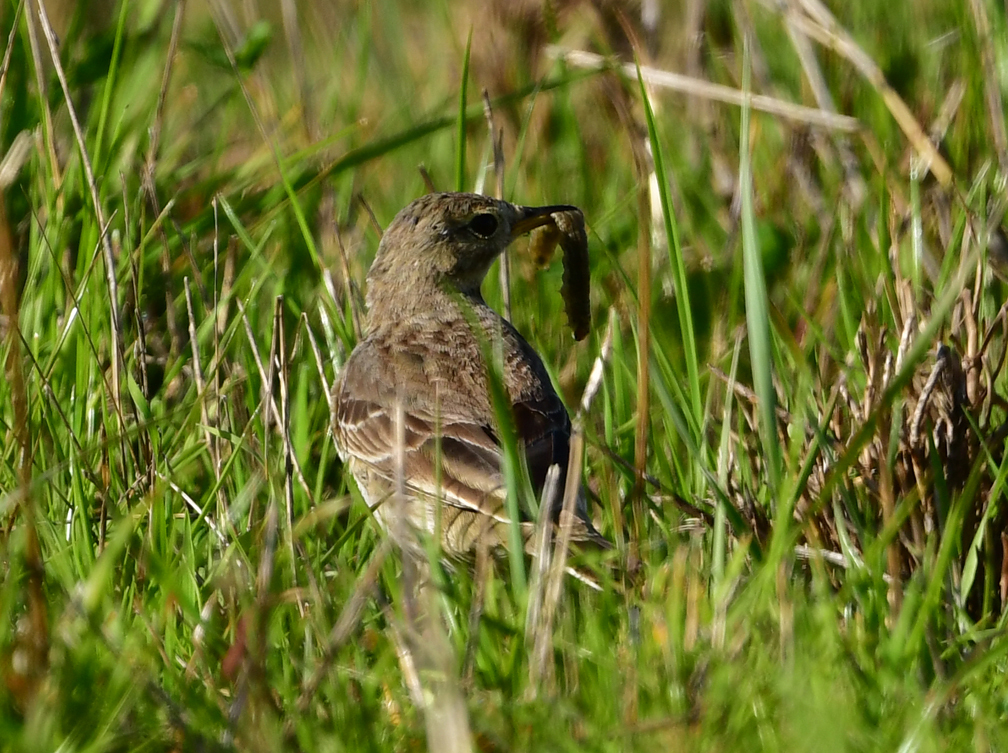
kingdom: Animalia
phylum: Chordata
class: Aves
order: Passeriformes
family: Motacillidae
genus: Anthus
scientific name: Anthus rubescens
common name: Buff-bellied pipit
